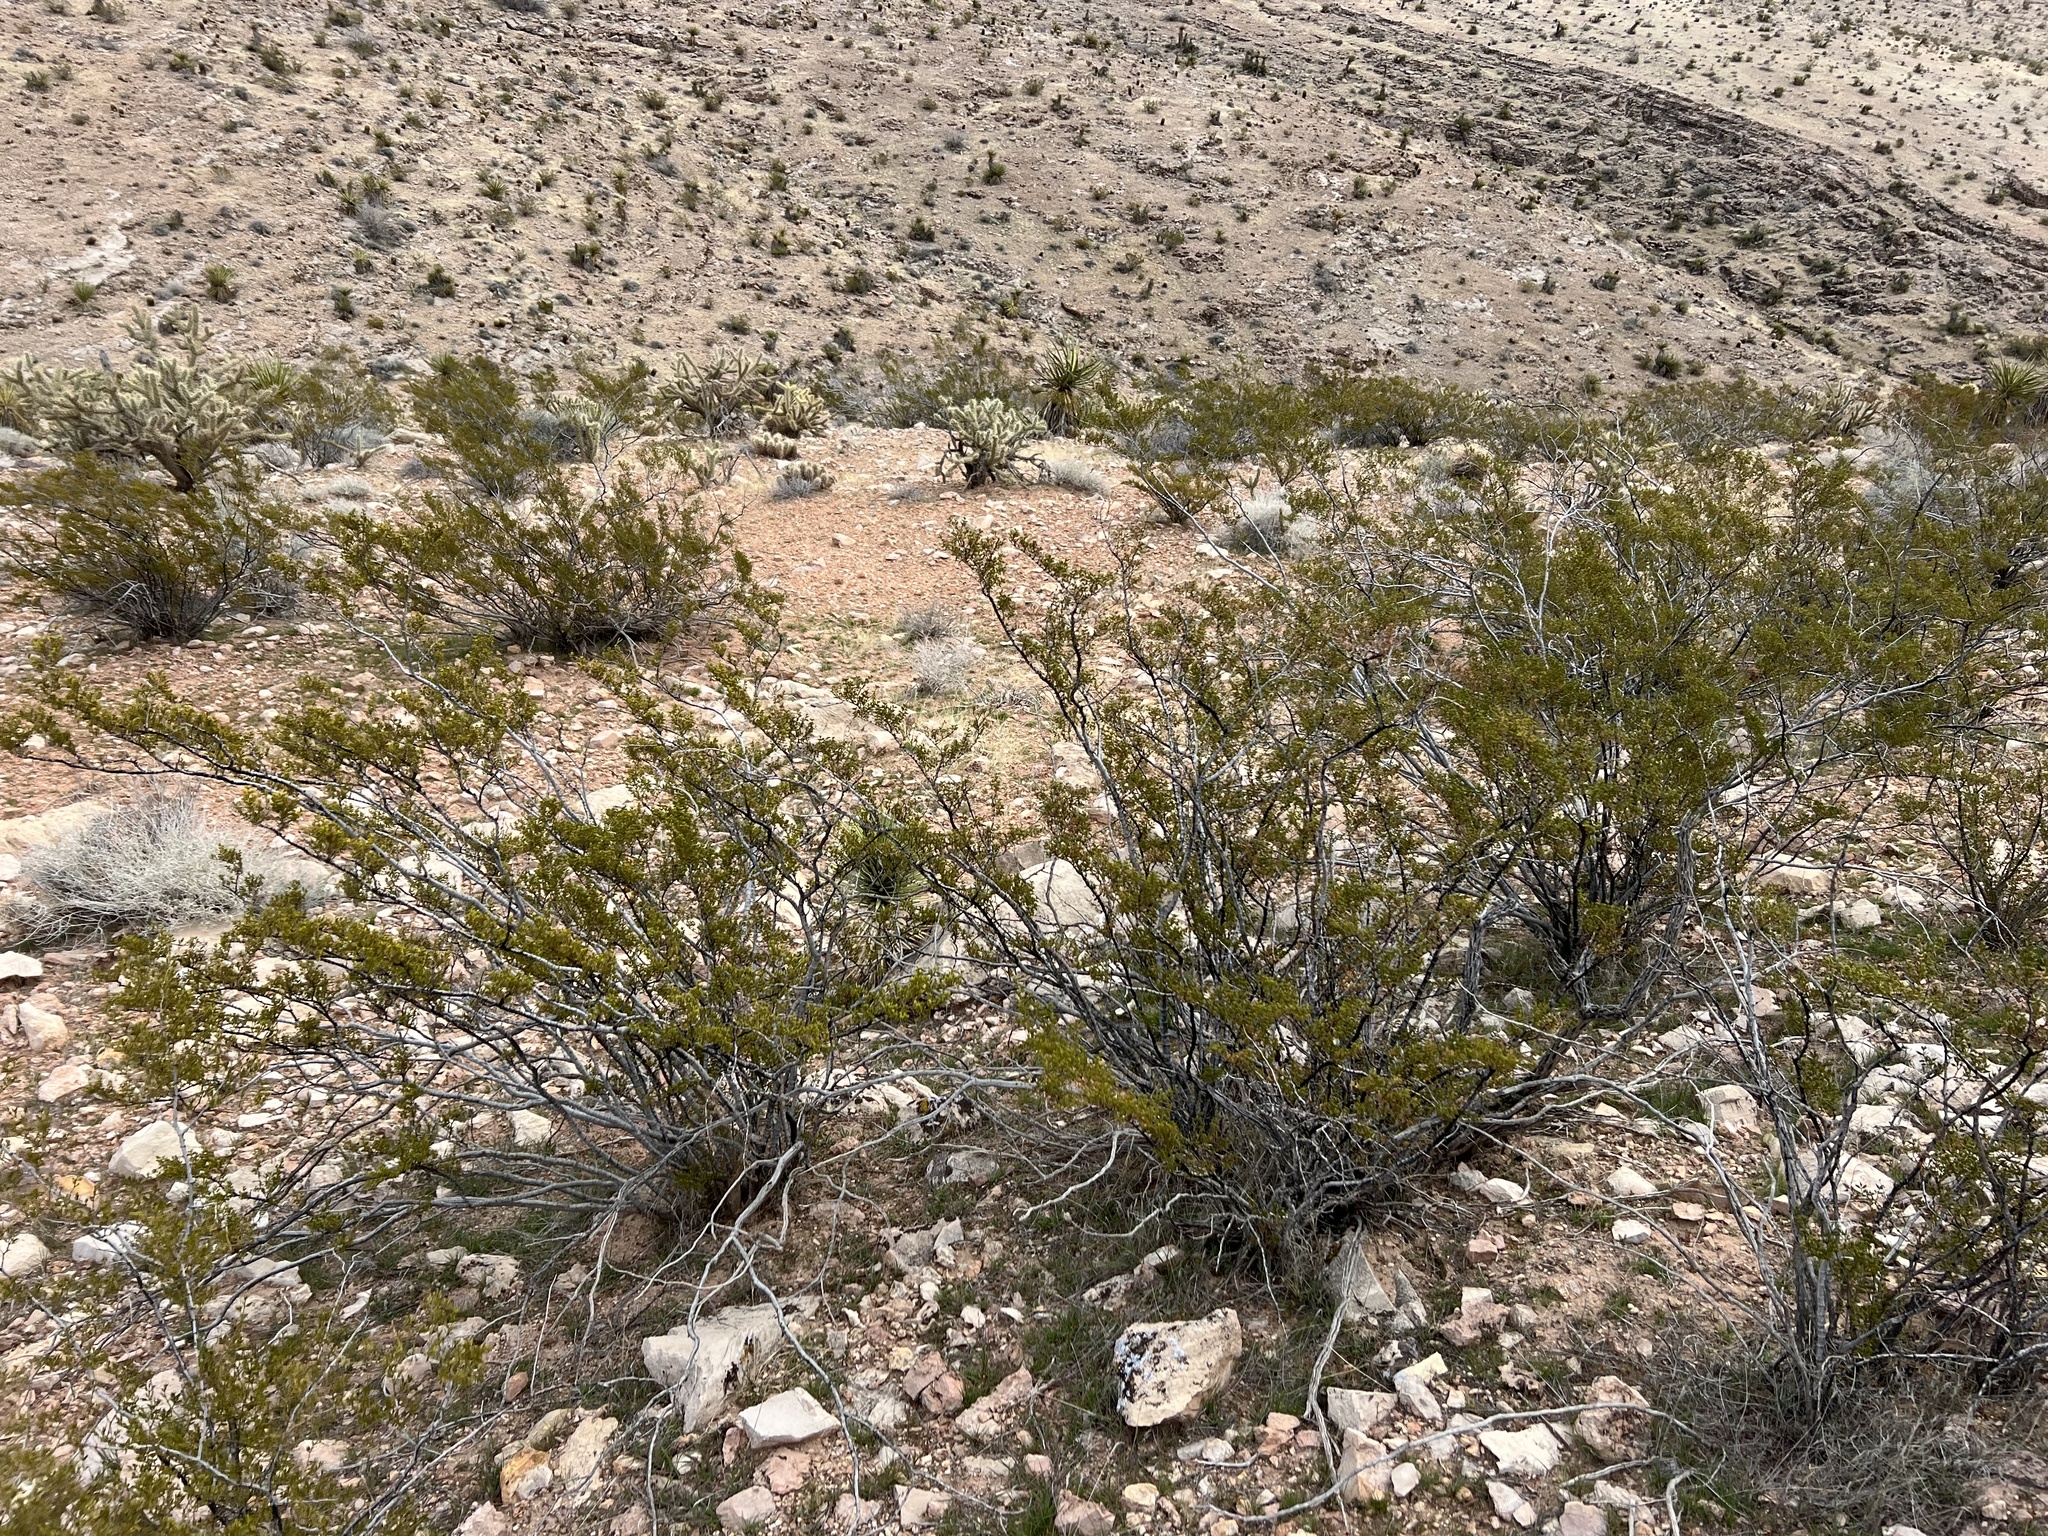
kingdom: Plantae
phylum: Tracheophyta
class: Magnoliopsida
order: Zygophyllales
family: Zygophyllaceae
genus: Larrea
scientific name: Larrea tridentata
